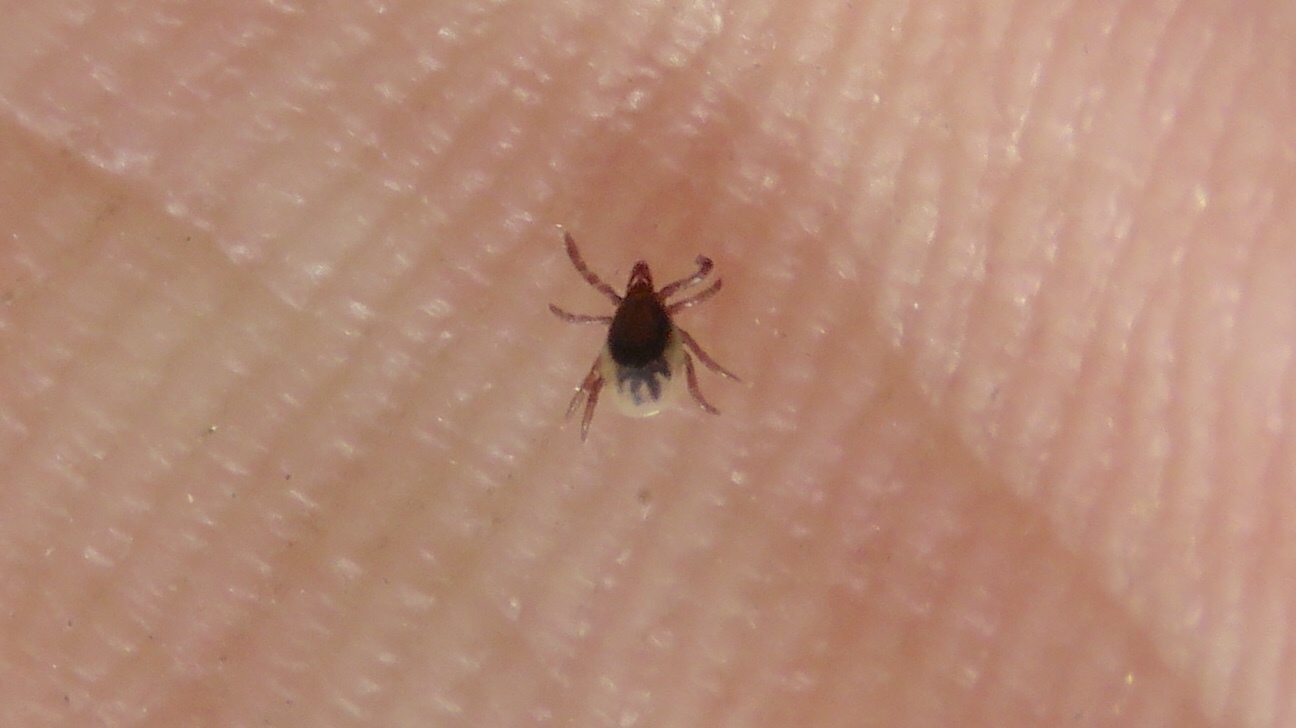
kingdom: Animalia
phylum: Arthropoda
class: Arachnida
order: Ixodida
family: Ixodidae
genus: Ixodes
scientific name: Ixodes scapularis
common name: Black legged tick
